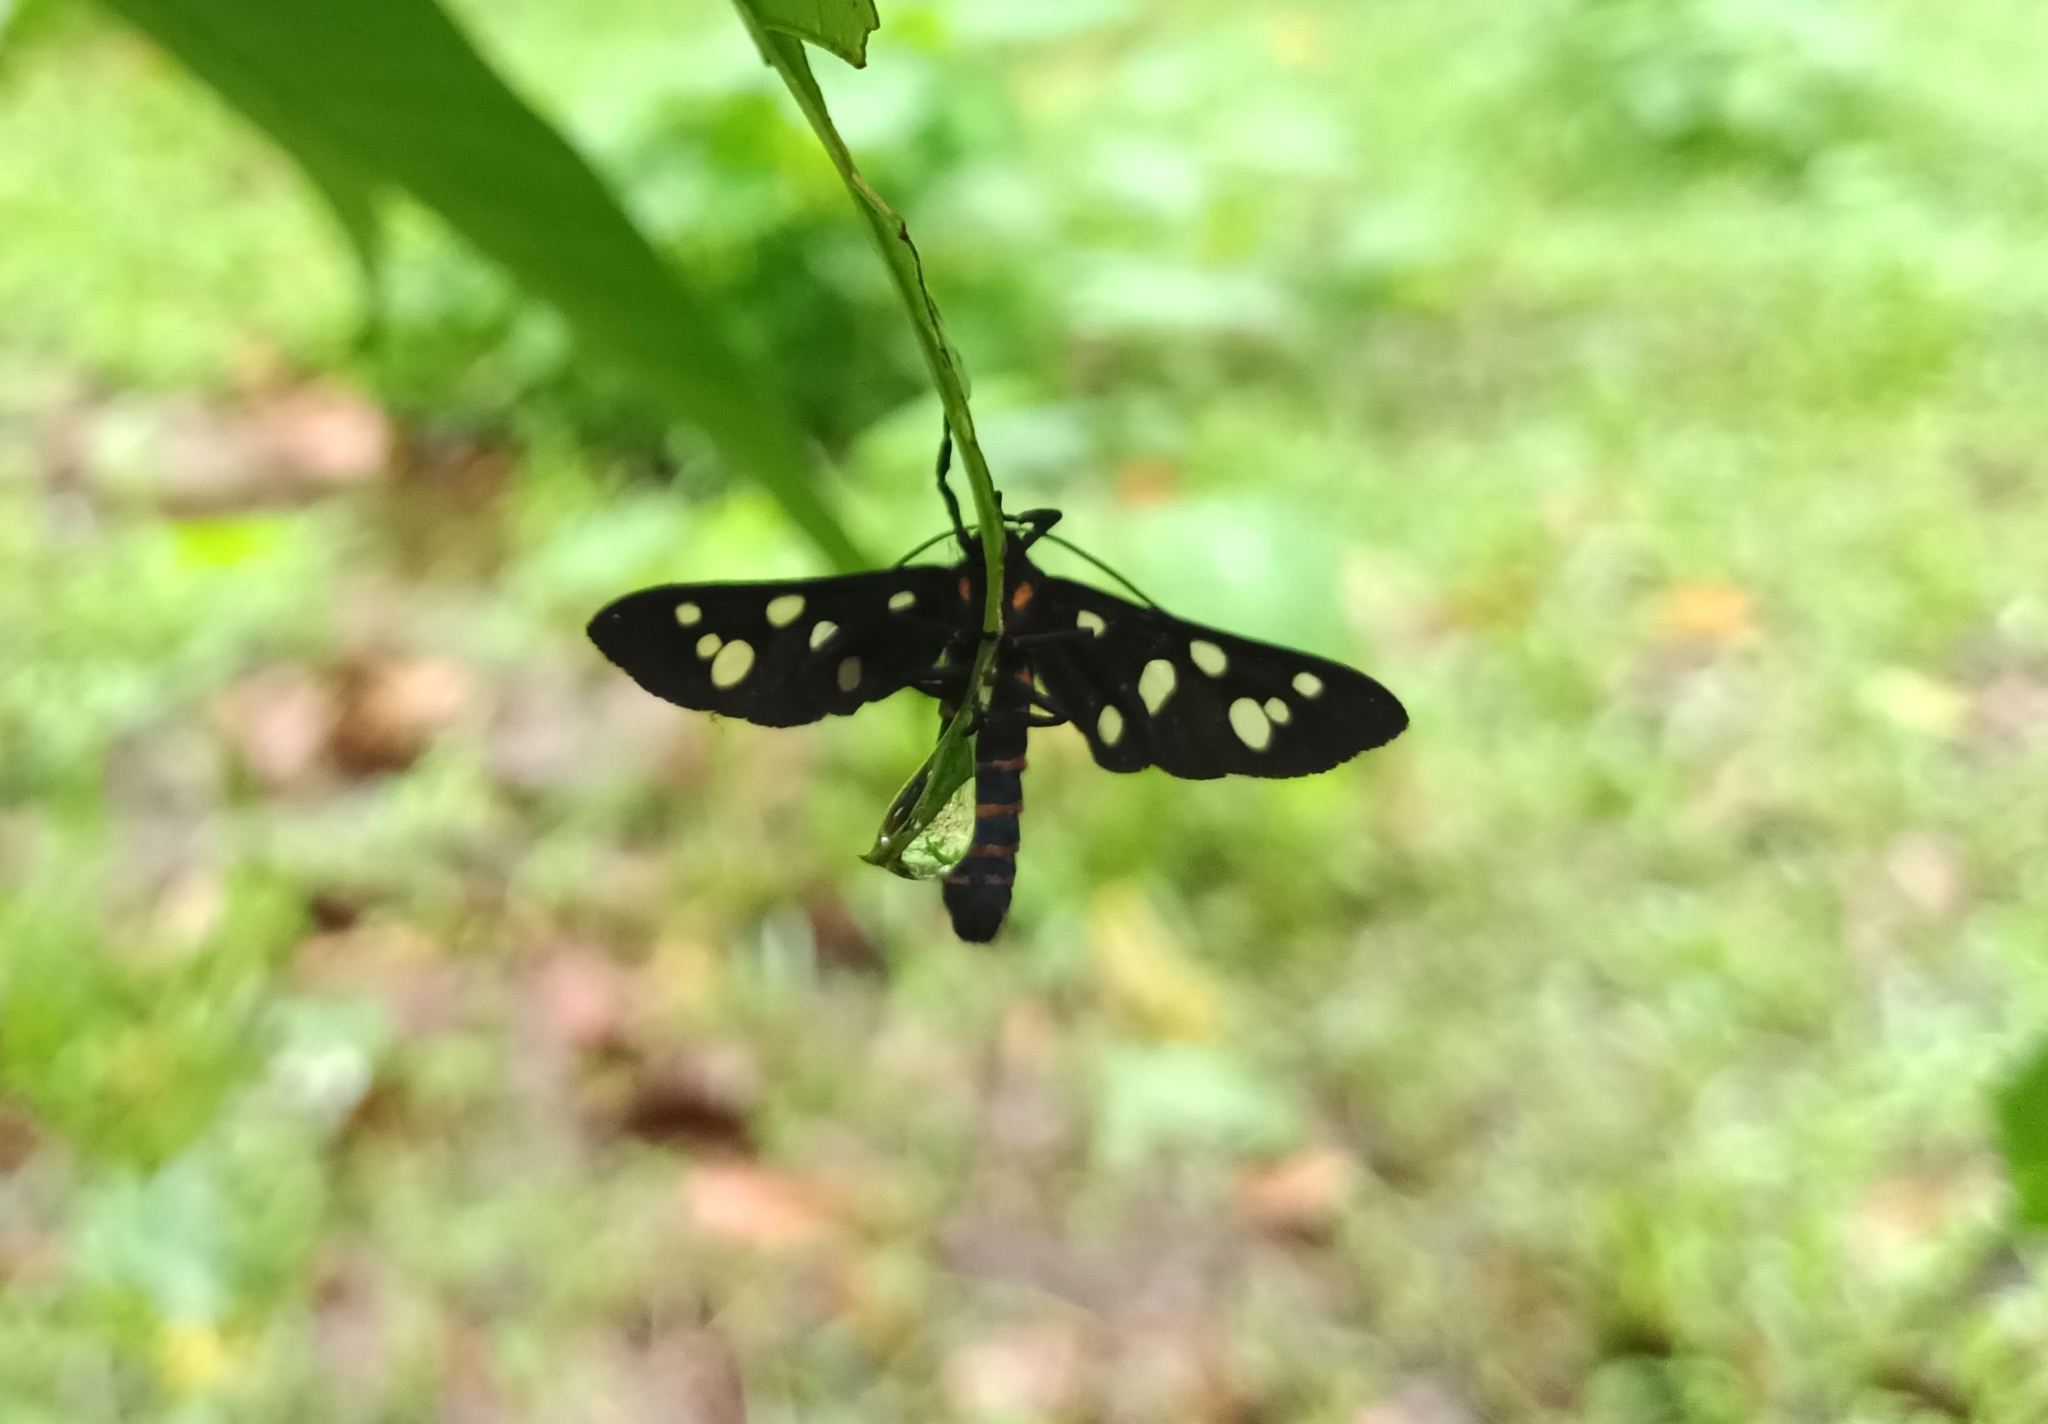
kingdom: Animalia
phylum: Arthropoda
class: Insecta
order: Lepidoptera
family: Erebidae
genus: Amata
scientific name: Amata passalis
